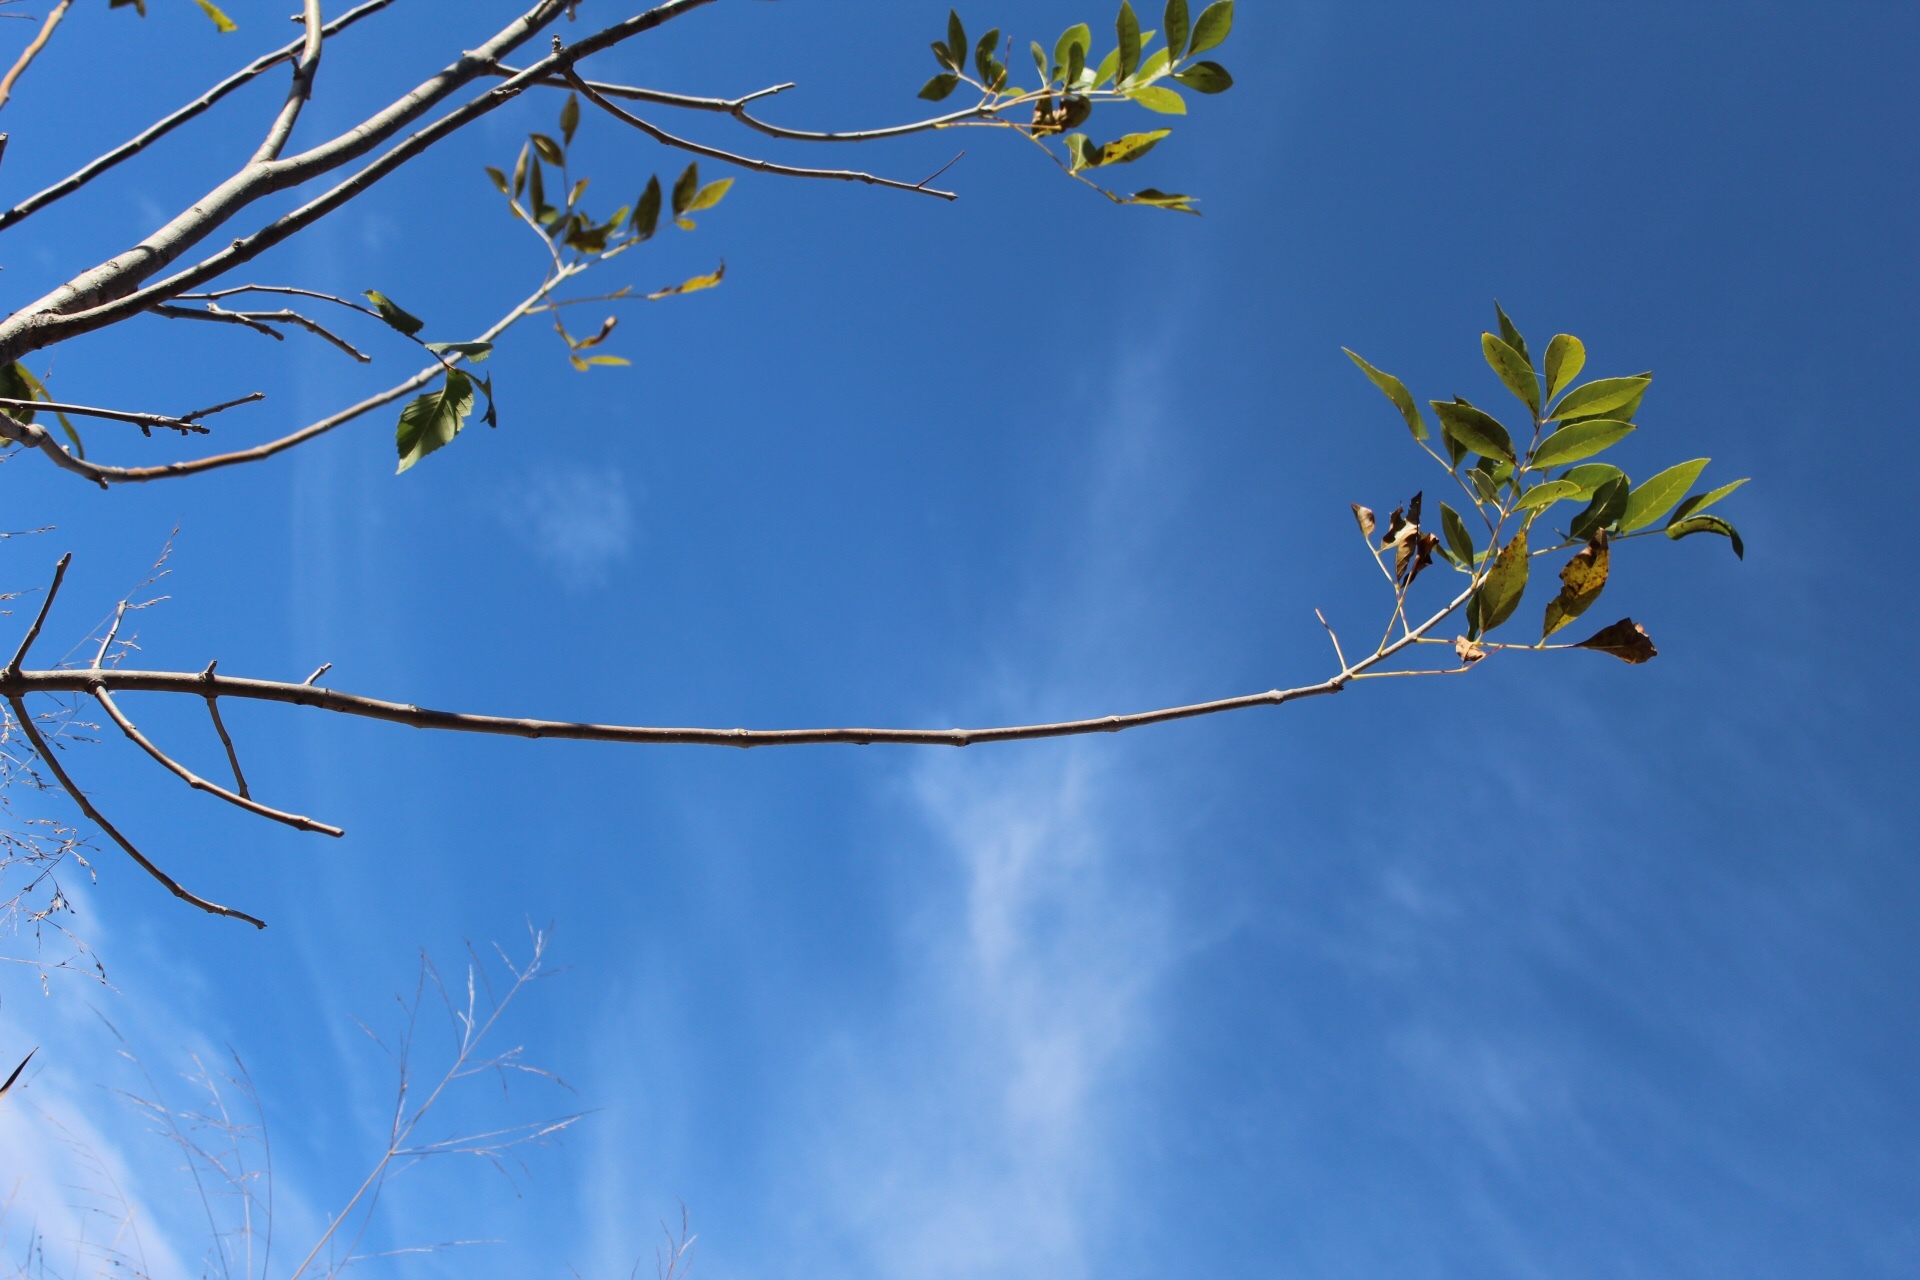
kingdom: Plantae
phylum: Tracheophyta
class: Magnoliopsida
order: Rosales
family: Ulmaceae
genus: Ulmus
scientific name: Ulmus americana
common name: American elm
